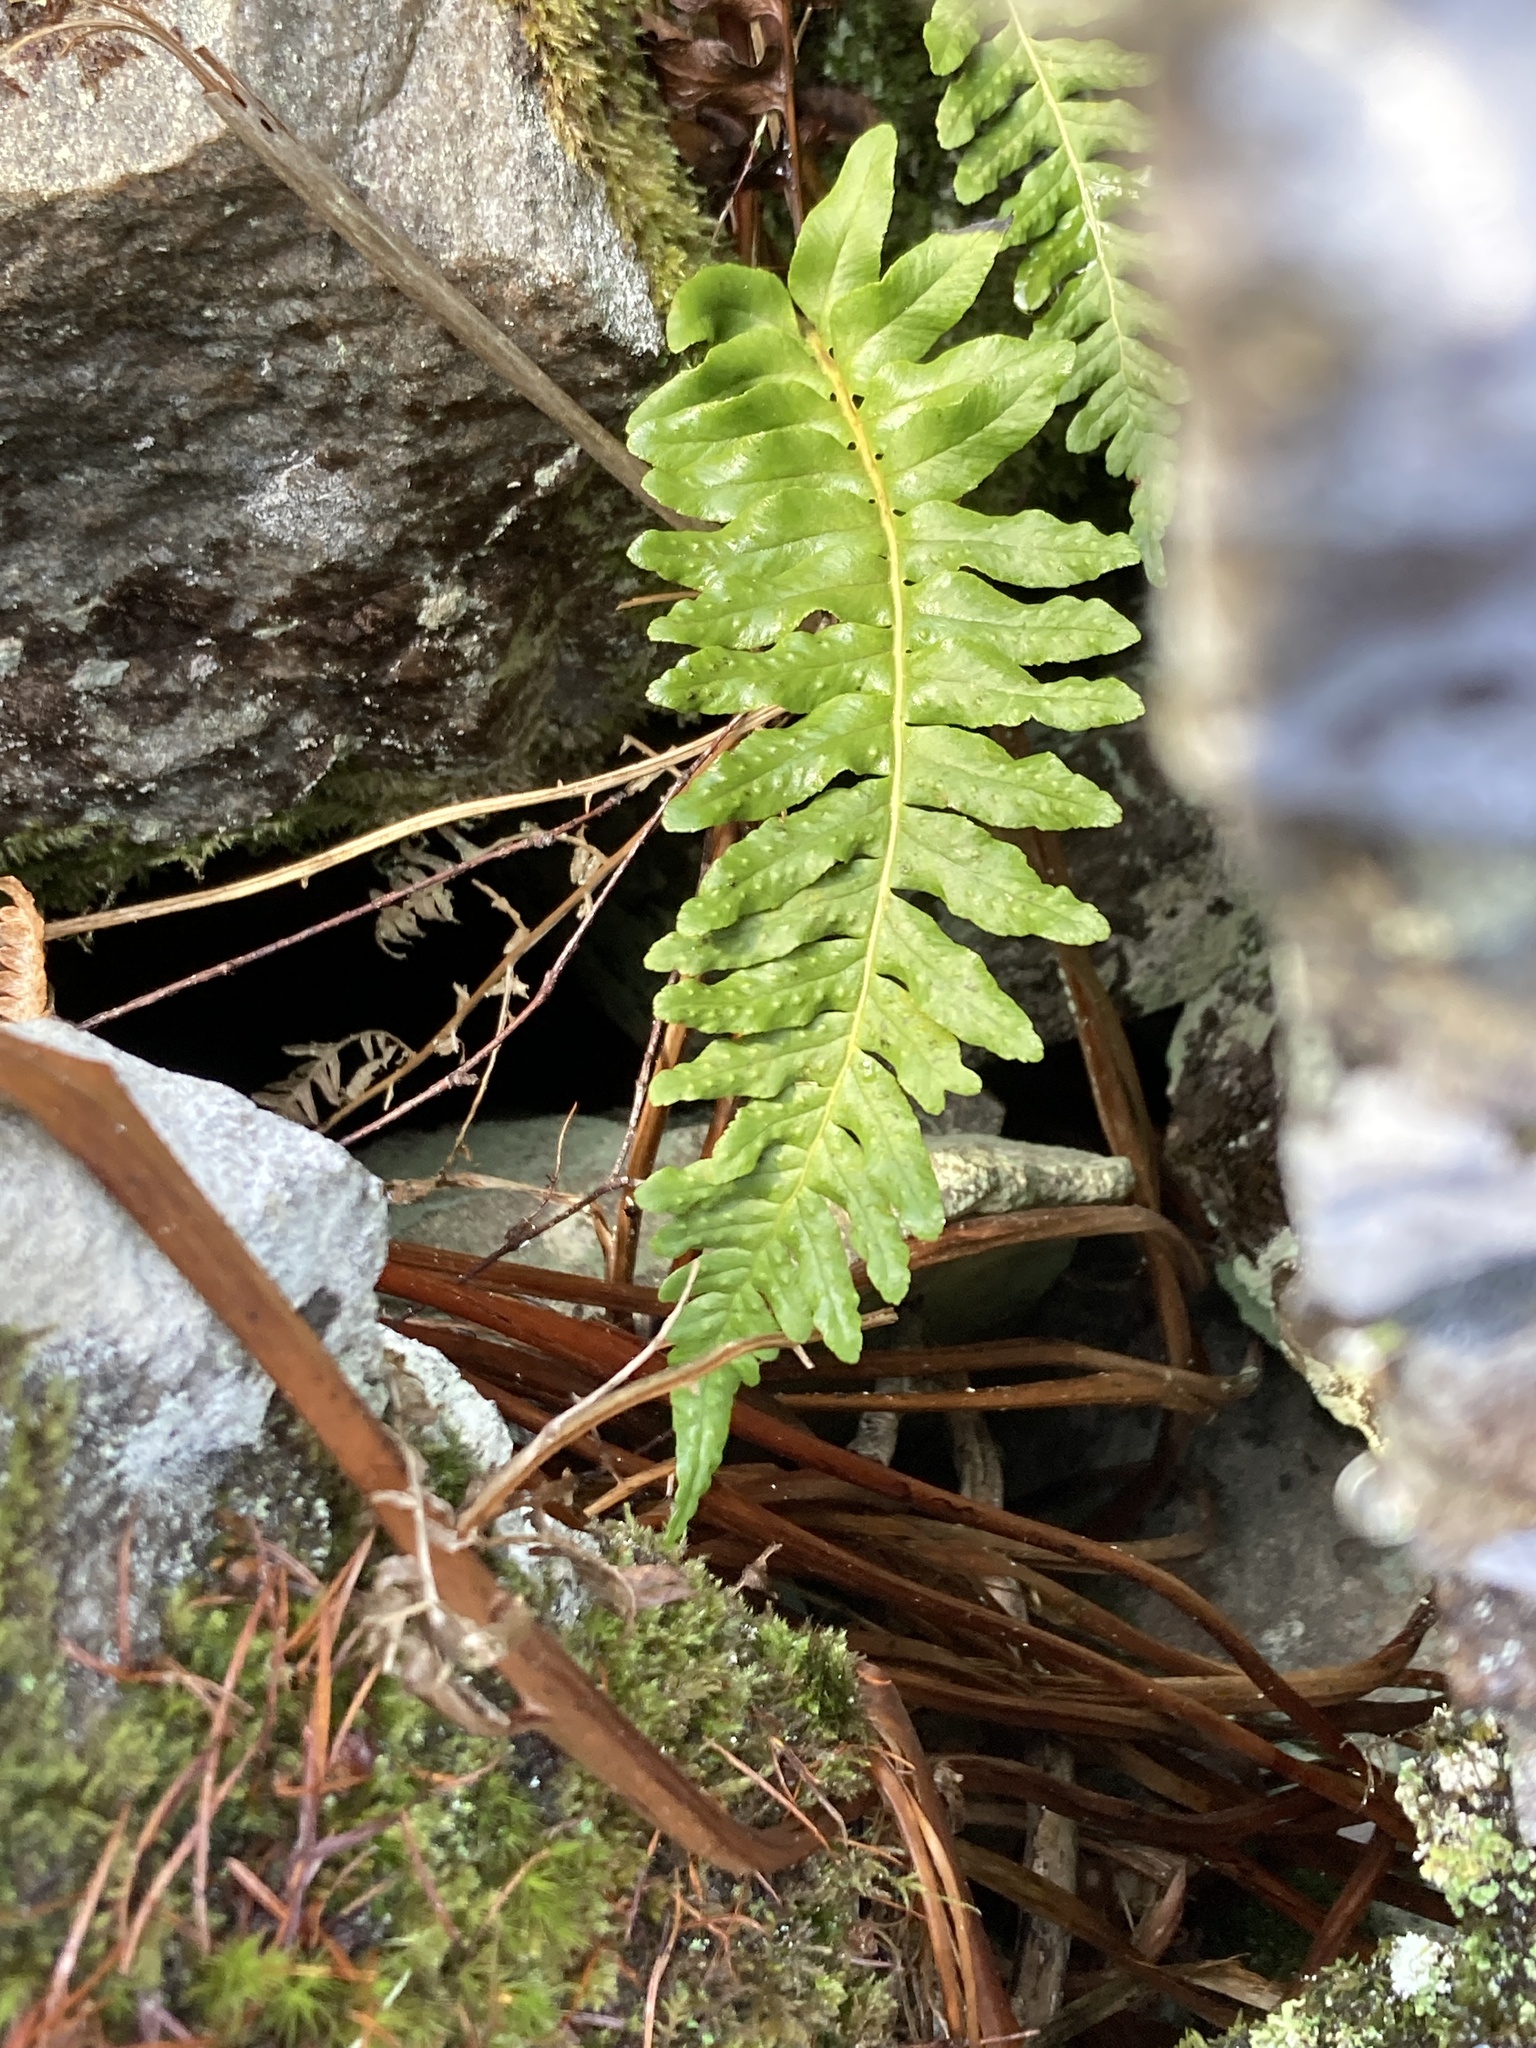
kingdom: Plantae
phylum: Tracheophyta
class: Polypodiopsida
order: Polypodiales
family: Polypodiaceae
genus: Polypodium
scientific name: Polypodium
